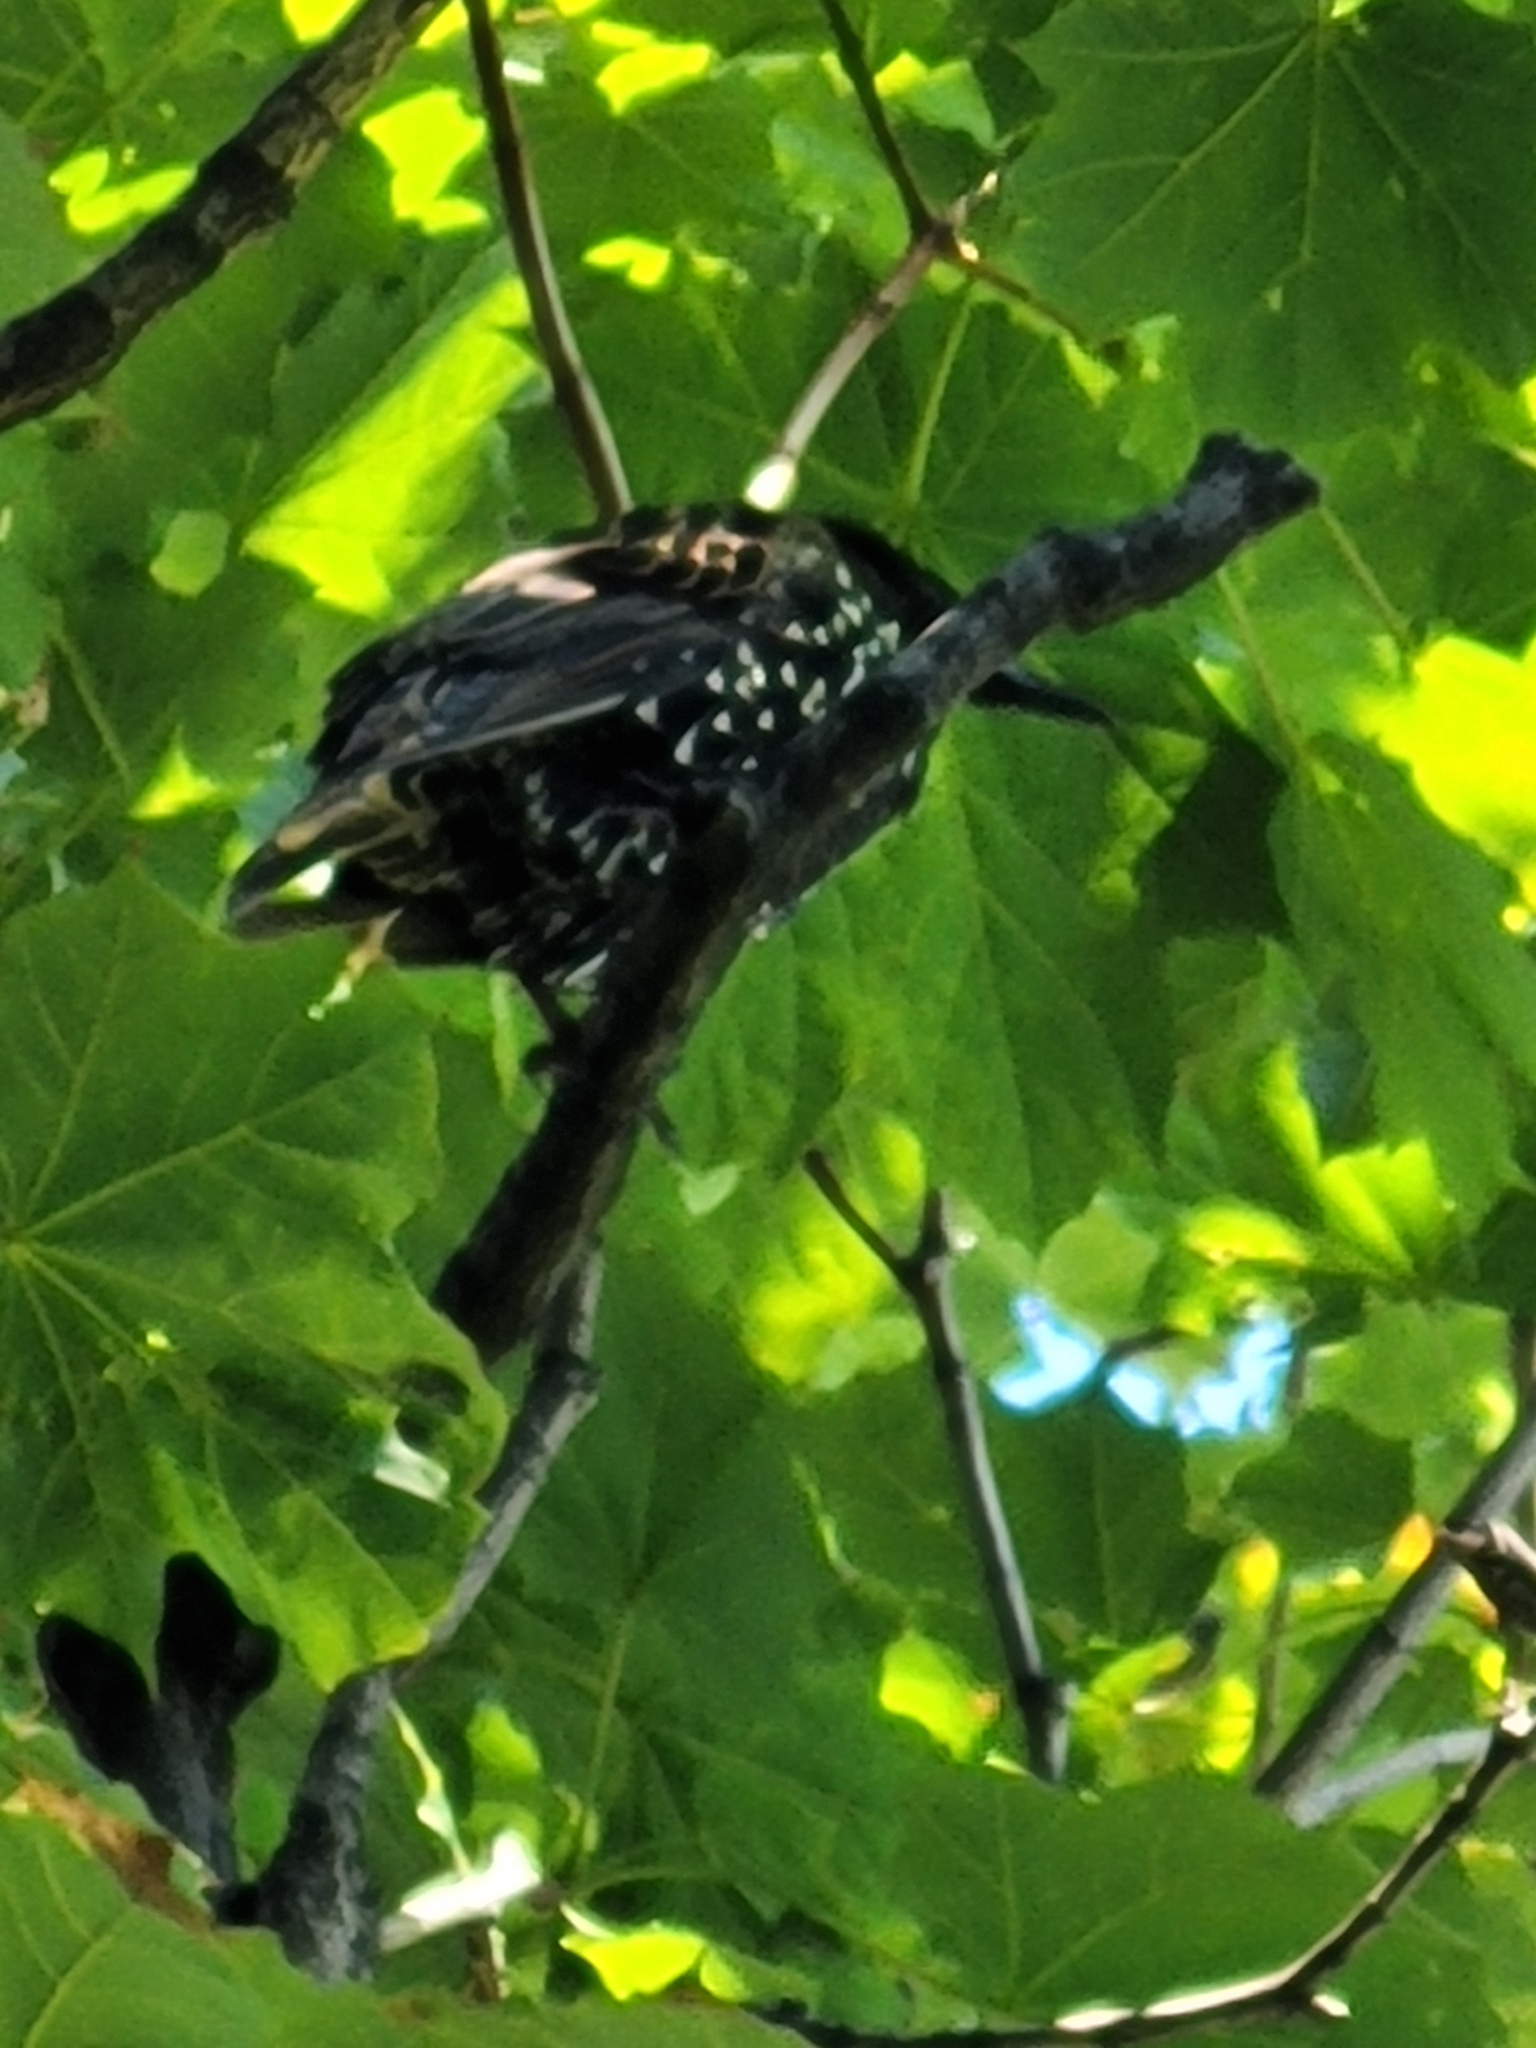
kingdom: Animalia
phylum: Chordata
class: Aves
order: Passeriformes
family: Sturnidae
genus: Sturnus
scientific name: Sturnus vulgaris
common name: Common starling
